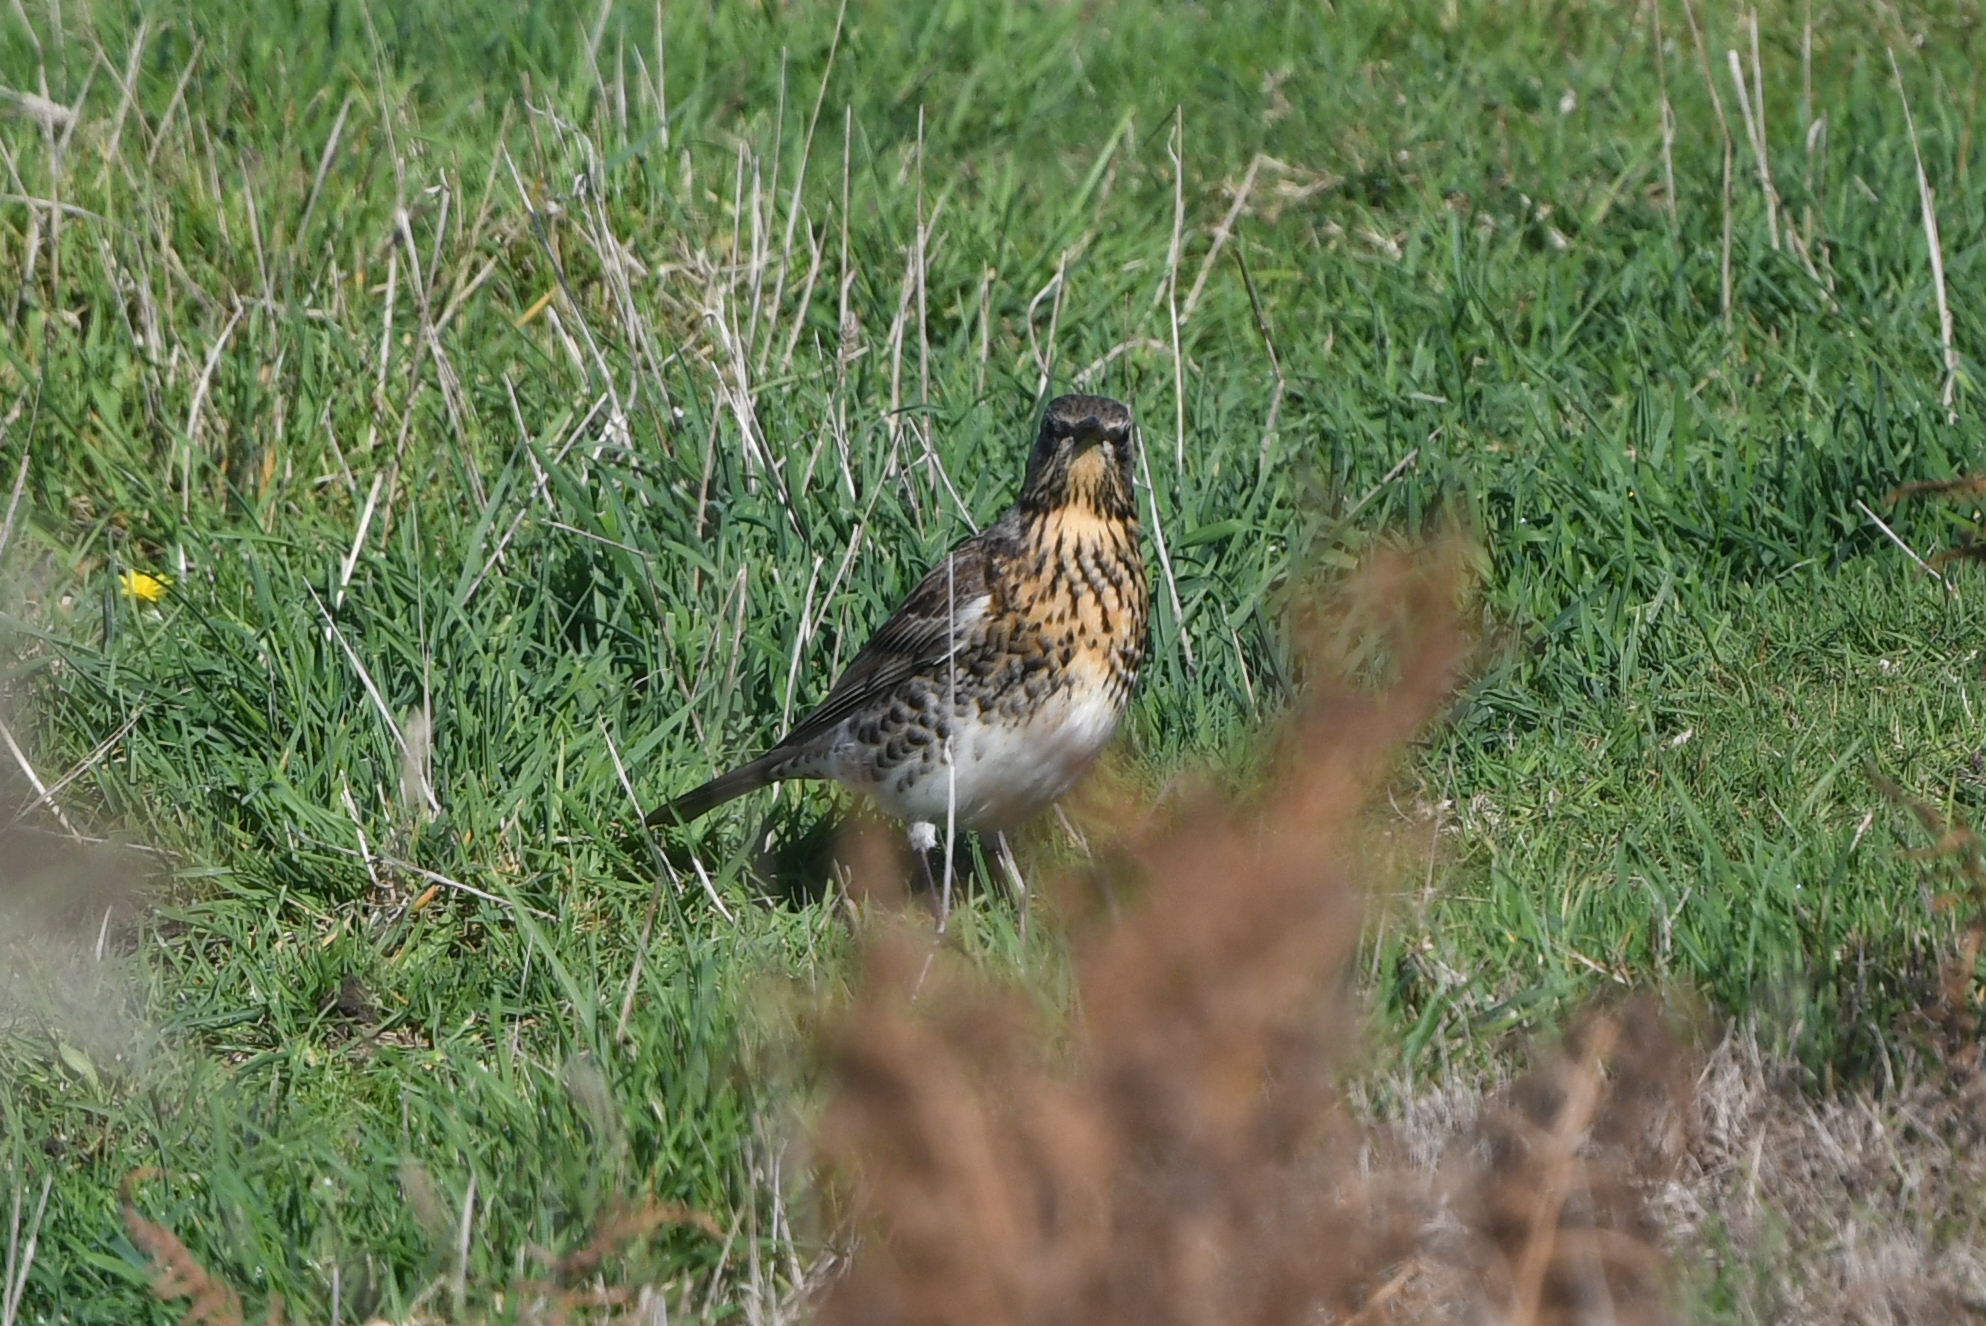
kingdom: Animalia
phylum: Chordata
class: Aves
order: Passeriformes
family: Turdidae
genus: Turdus
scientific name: Turdus pilaris
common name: Fieldfare
